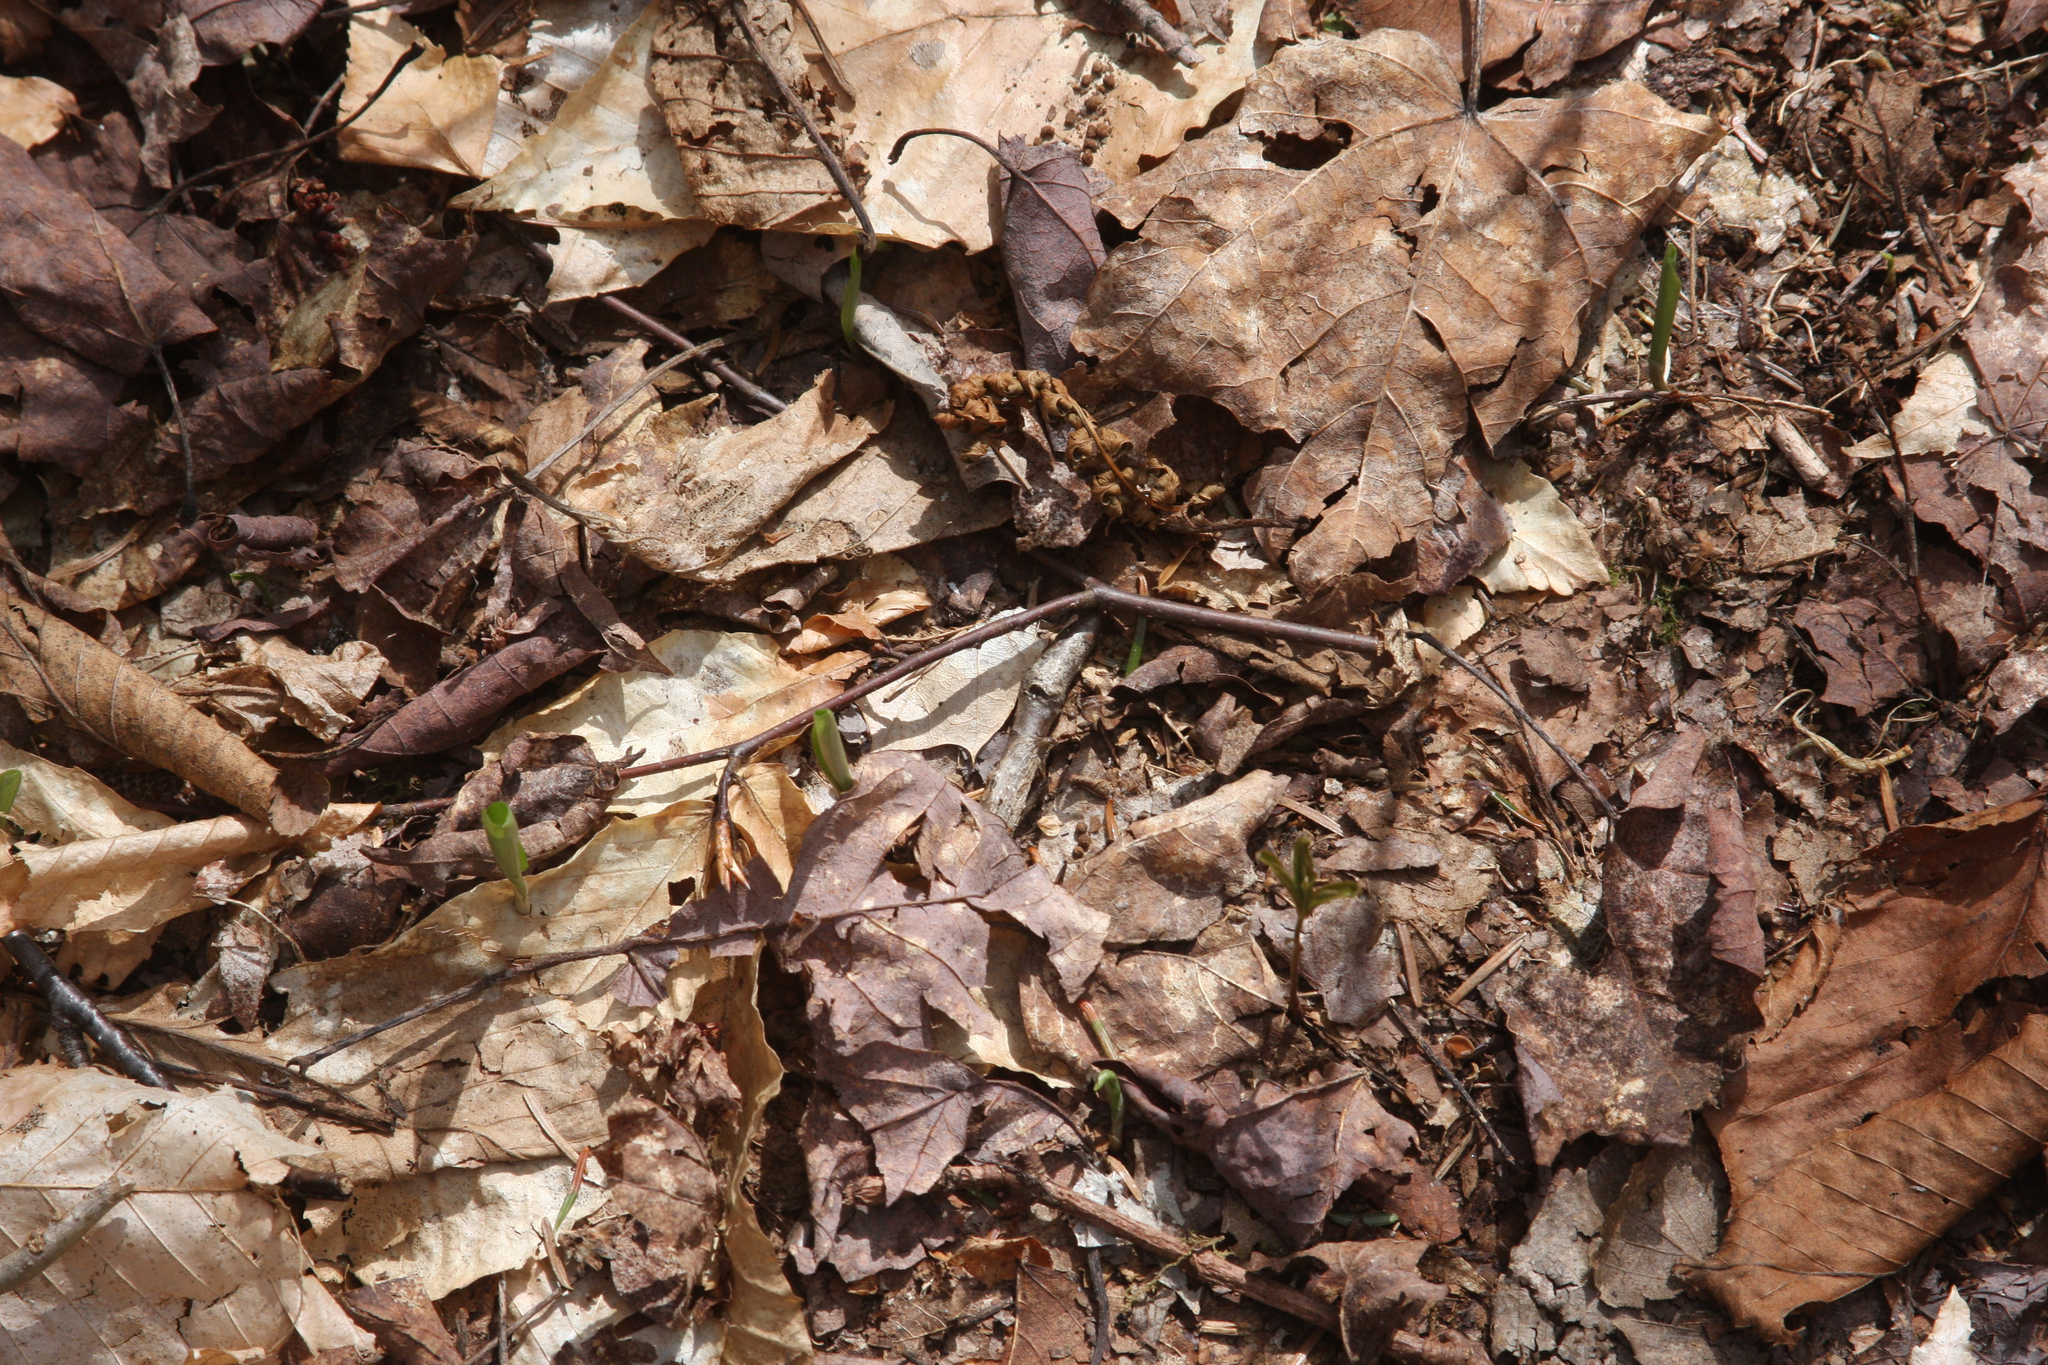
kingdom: Plantae
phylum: Tracheophyta
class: Liliopsida
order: Asparagales
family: Asparagaceae
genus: Maianthemum
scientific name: Maianthemum canadense
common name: False lily-of-the-valley
